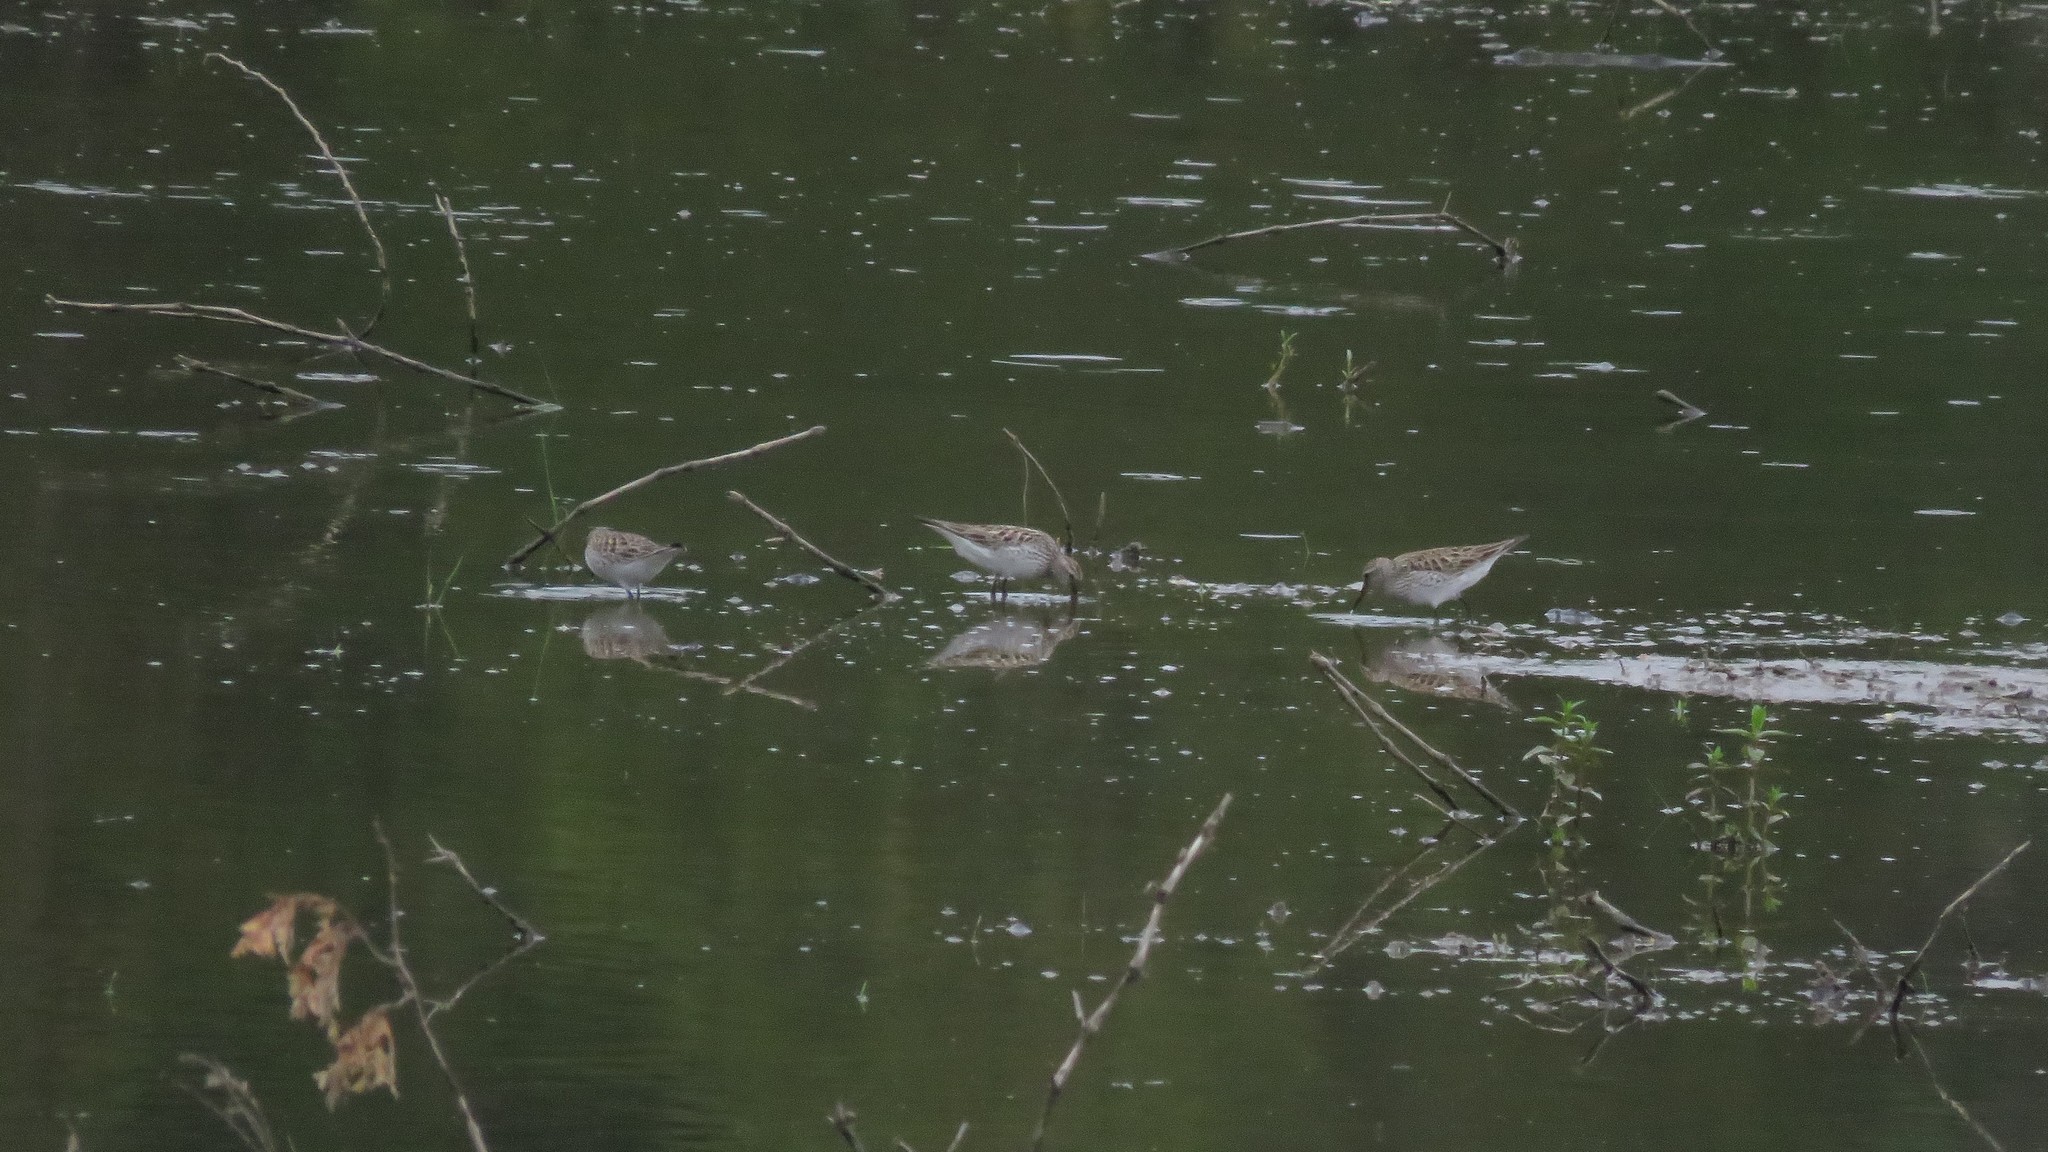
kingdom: Animalia
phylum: Chordata
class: Aves
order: Charadriiformes
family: Scolopacidae
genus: Calidris
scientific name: Calidris fuscicollis
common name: White-rumped sandpiper
